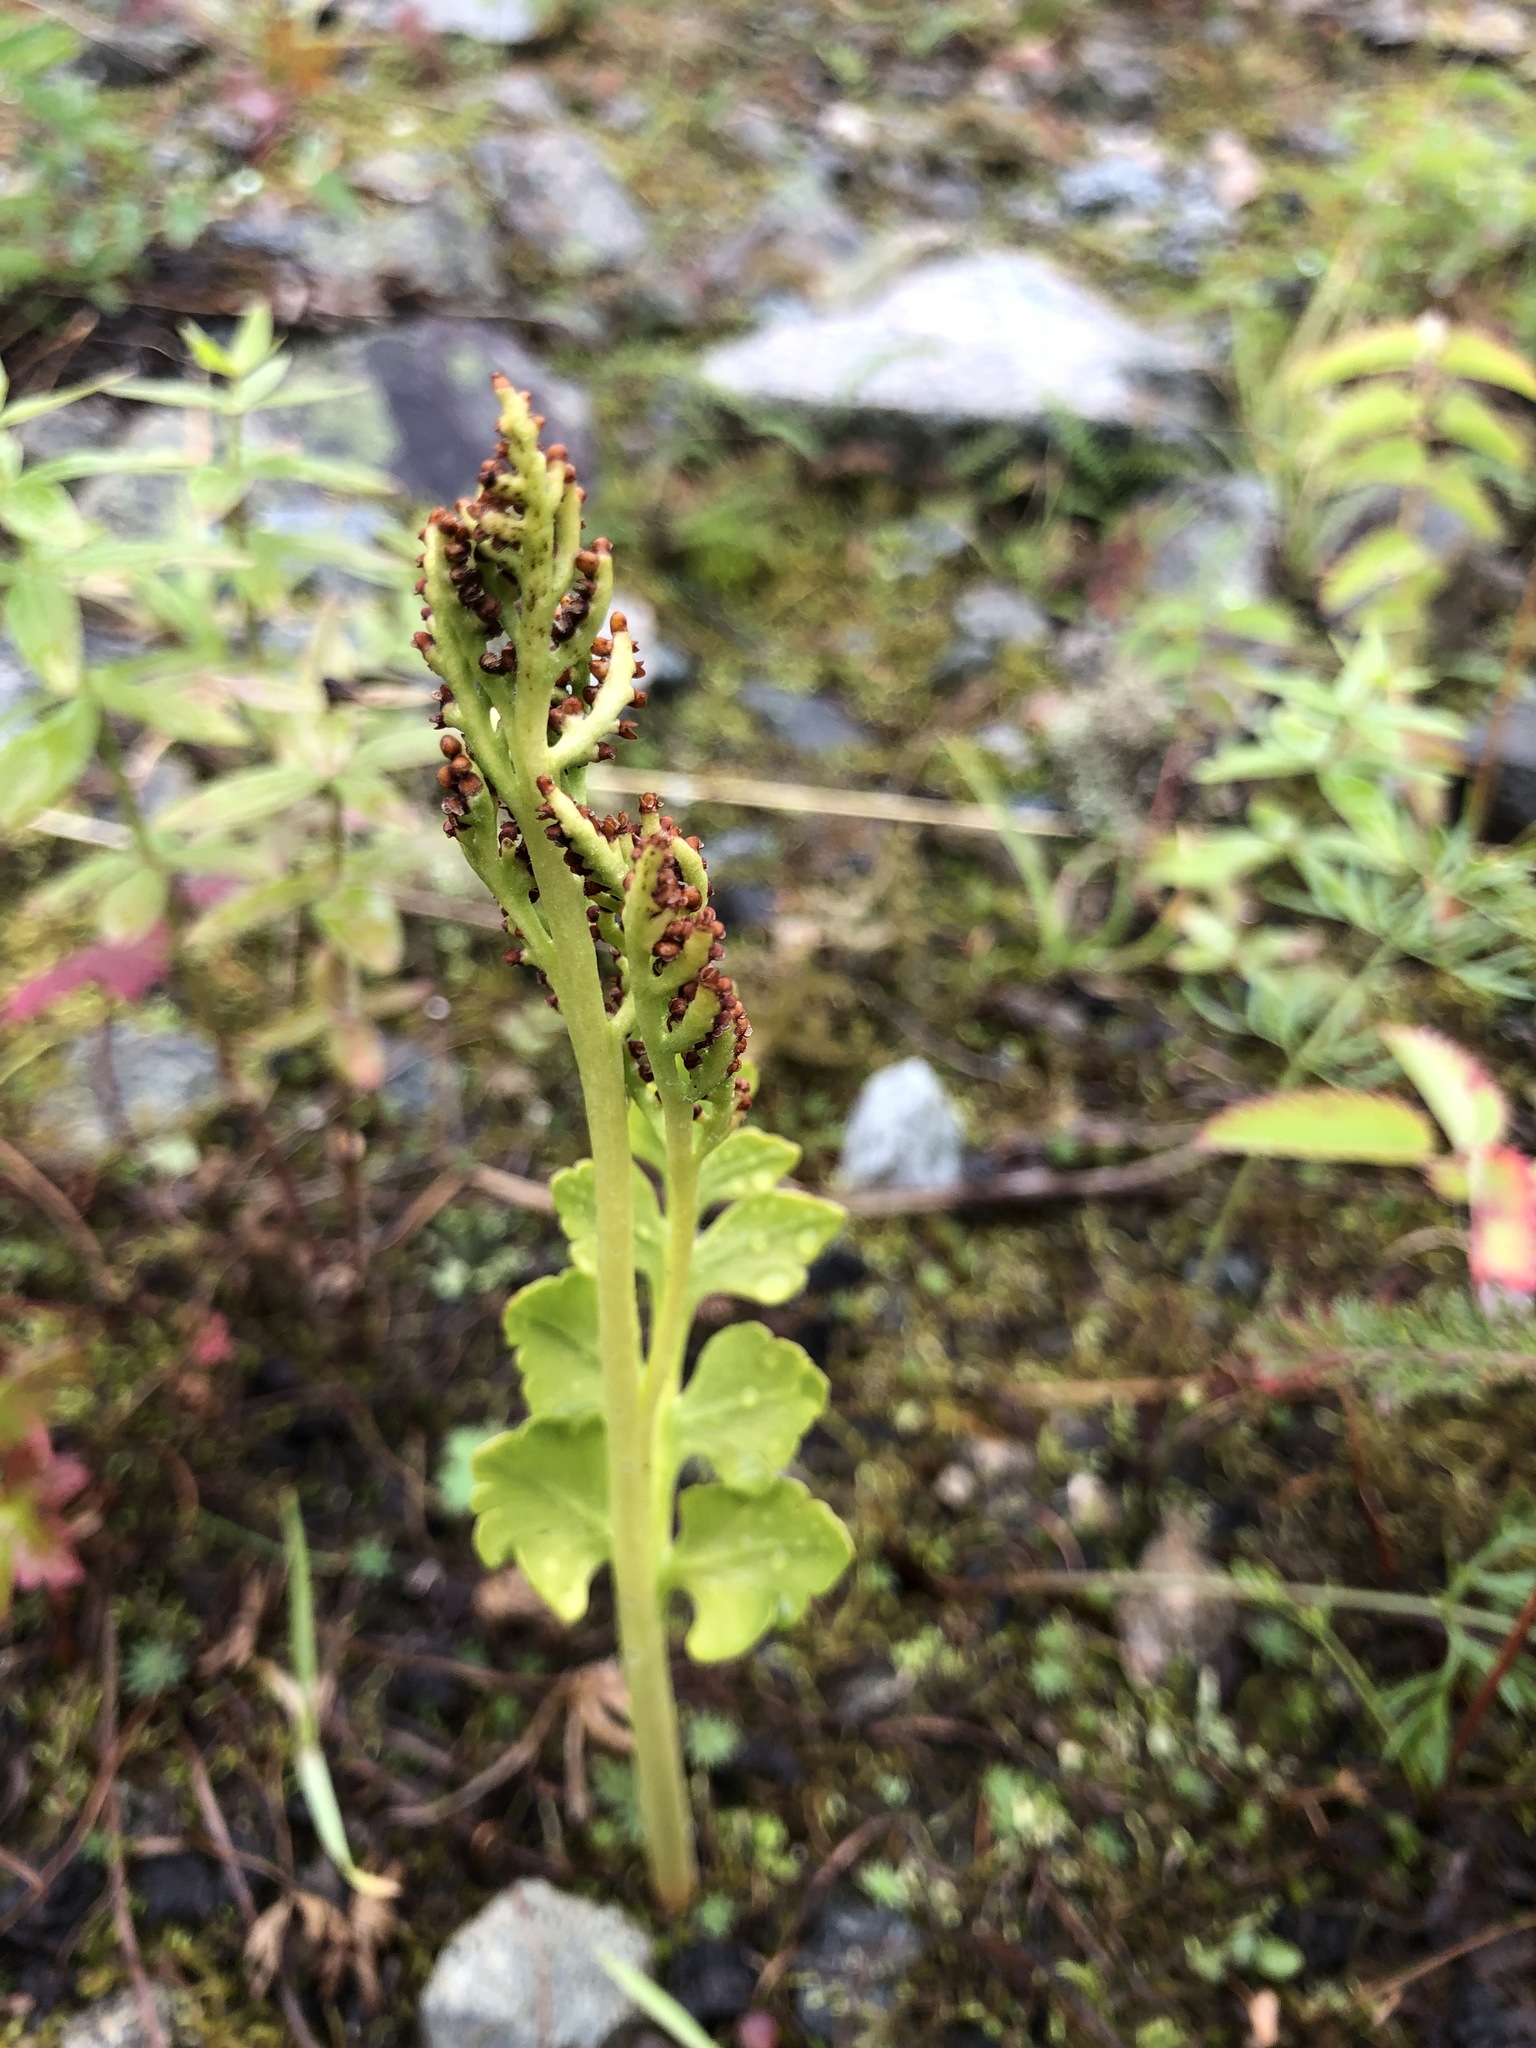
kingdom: Plantae
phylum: Tracheophyta
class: Polypodiopsida
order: Ophioglossales
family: Ophioglossaceae
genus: Botrychium
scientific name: Botrychium boreale
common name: Boreal moonwort
